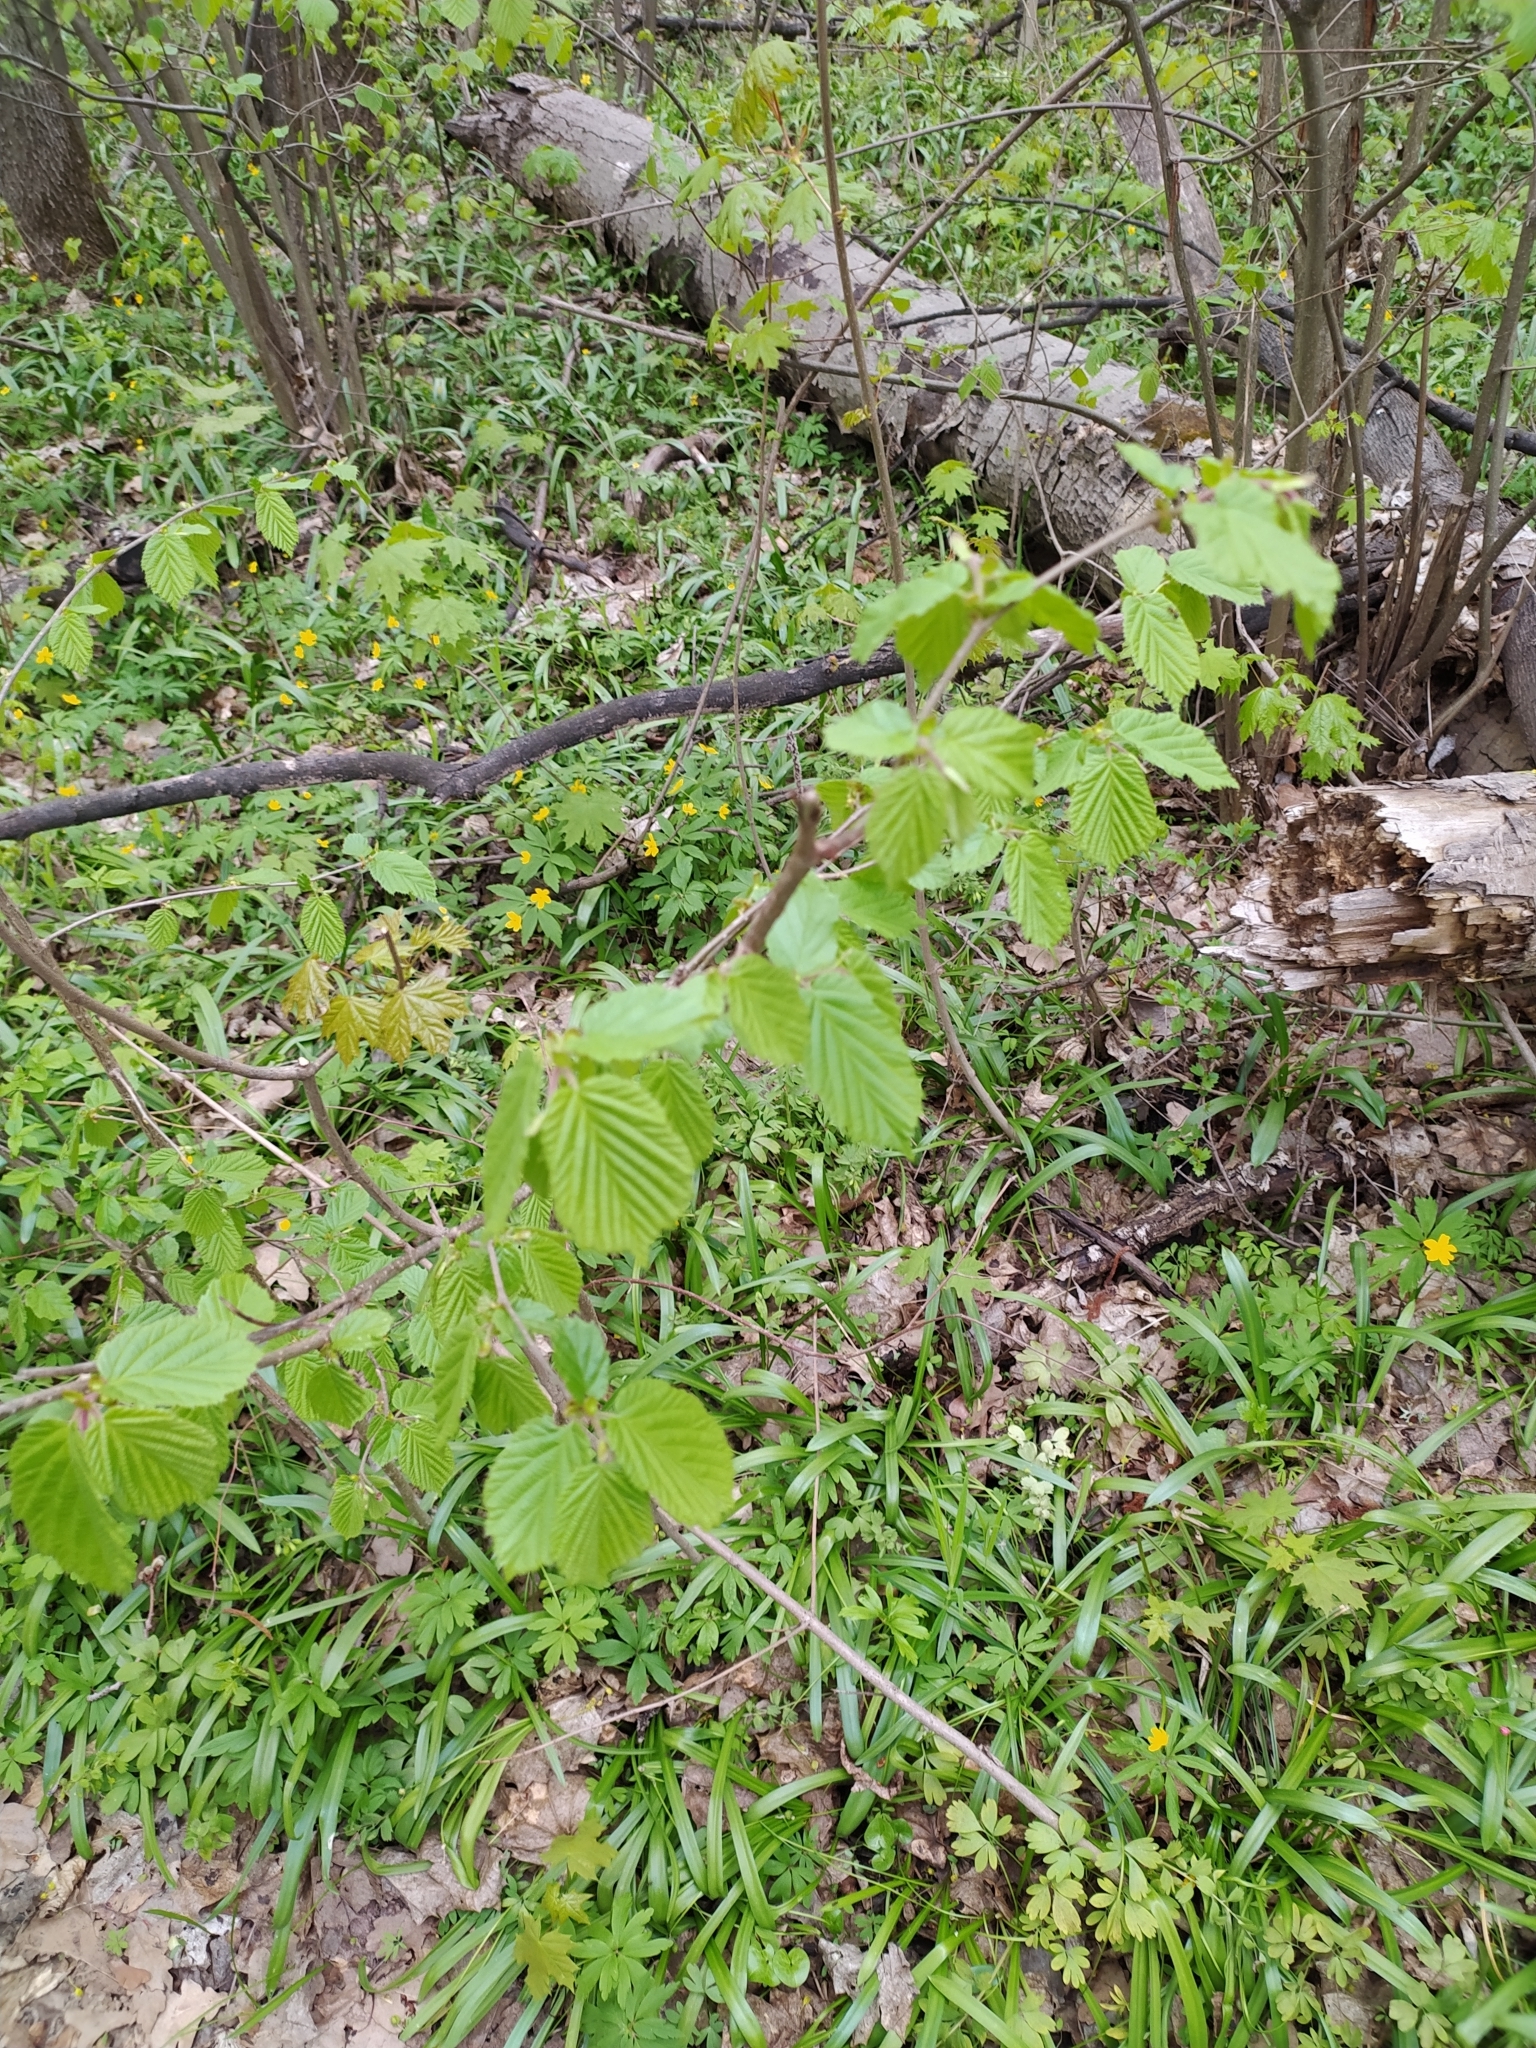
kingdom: Plantae
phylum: Tracheophyta
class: Magnoliopsida
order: Fagales
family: Betulaceae
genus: Corylus
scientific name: Corylus avellana
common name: European hazel
